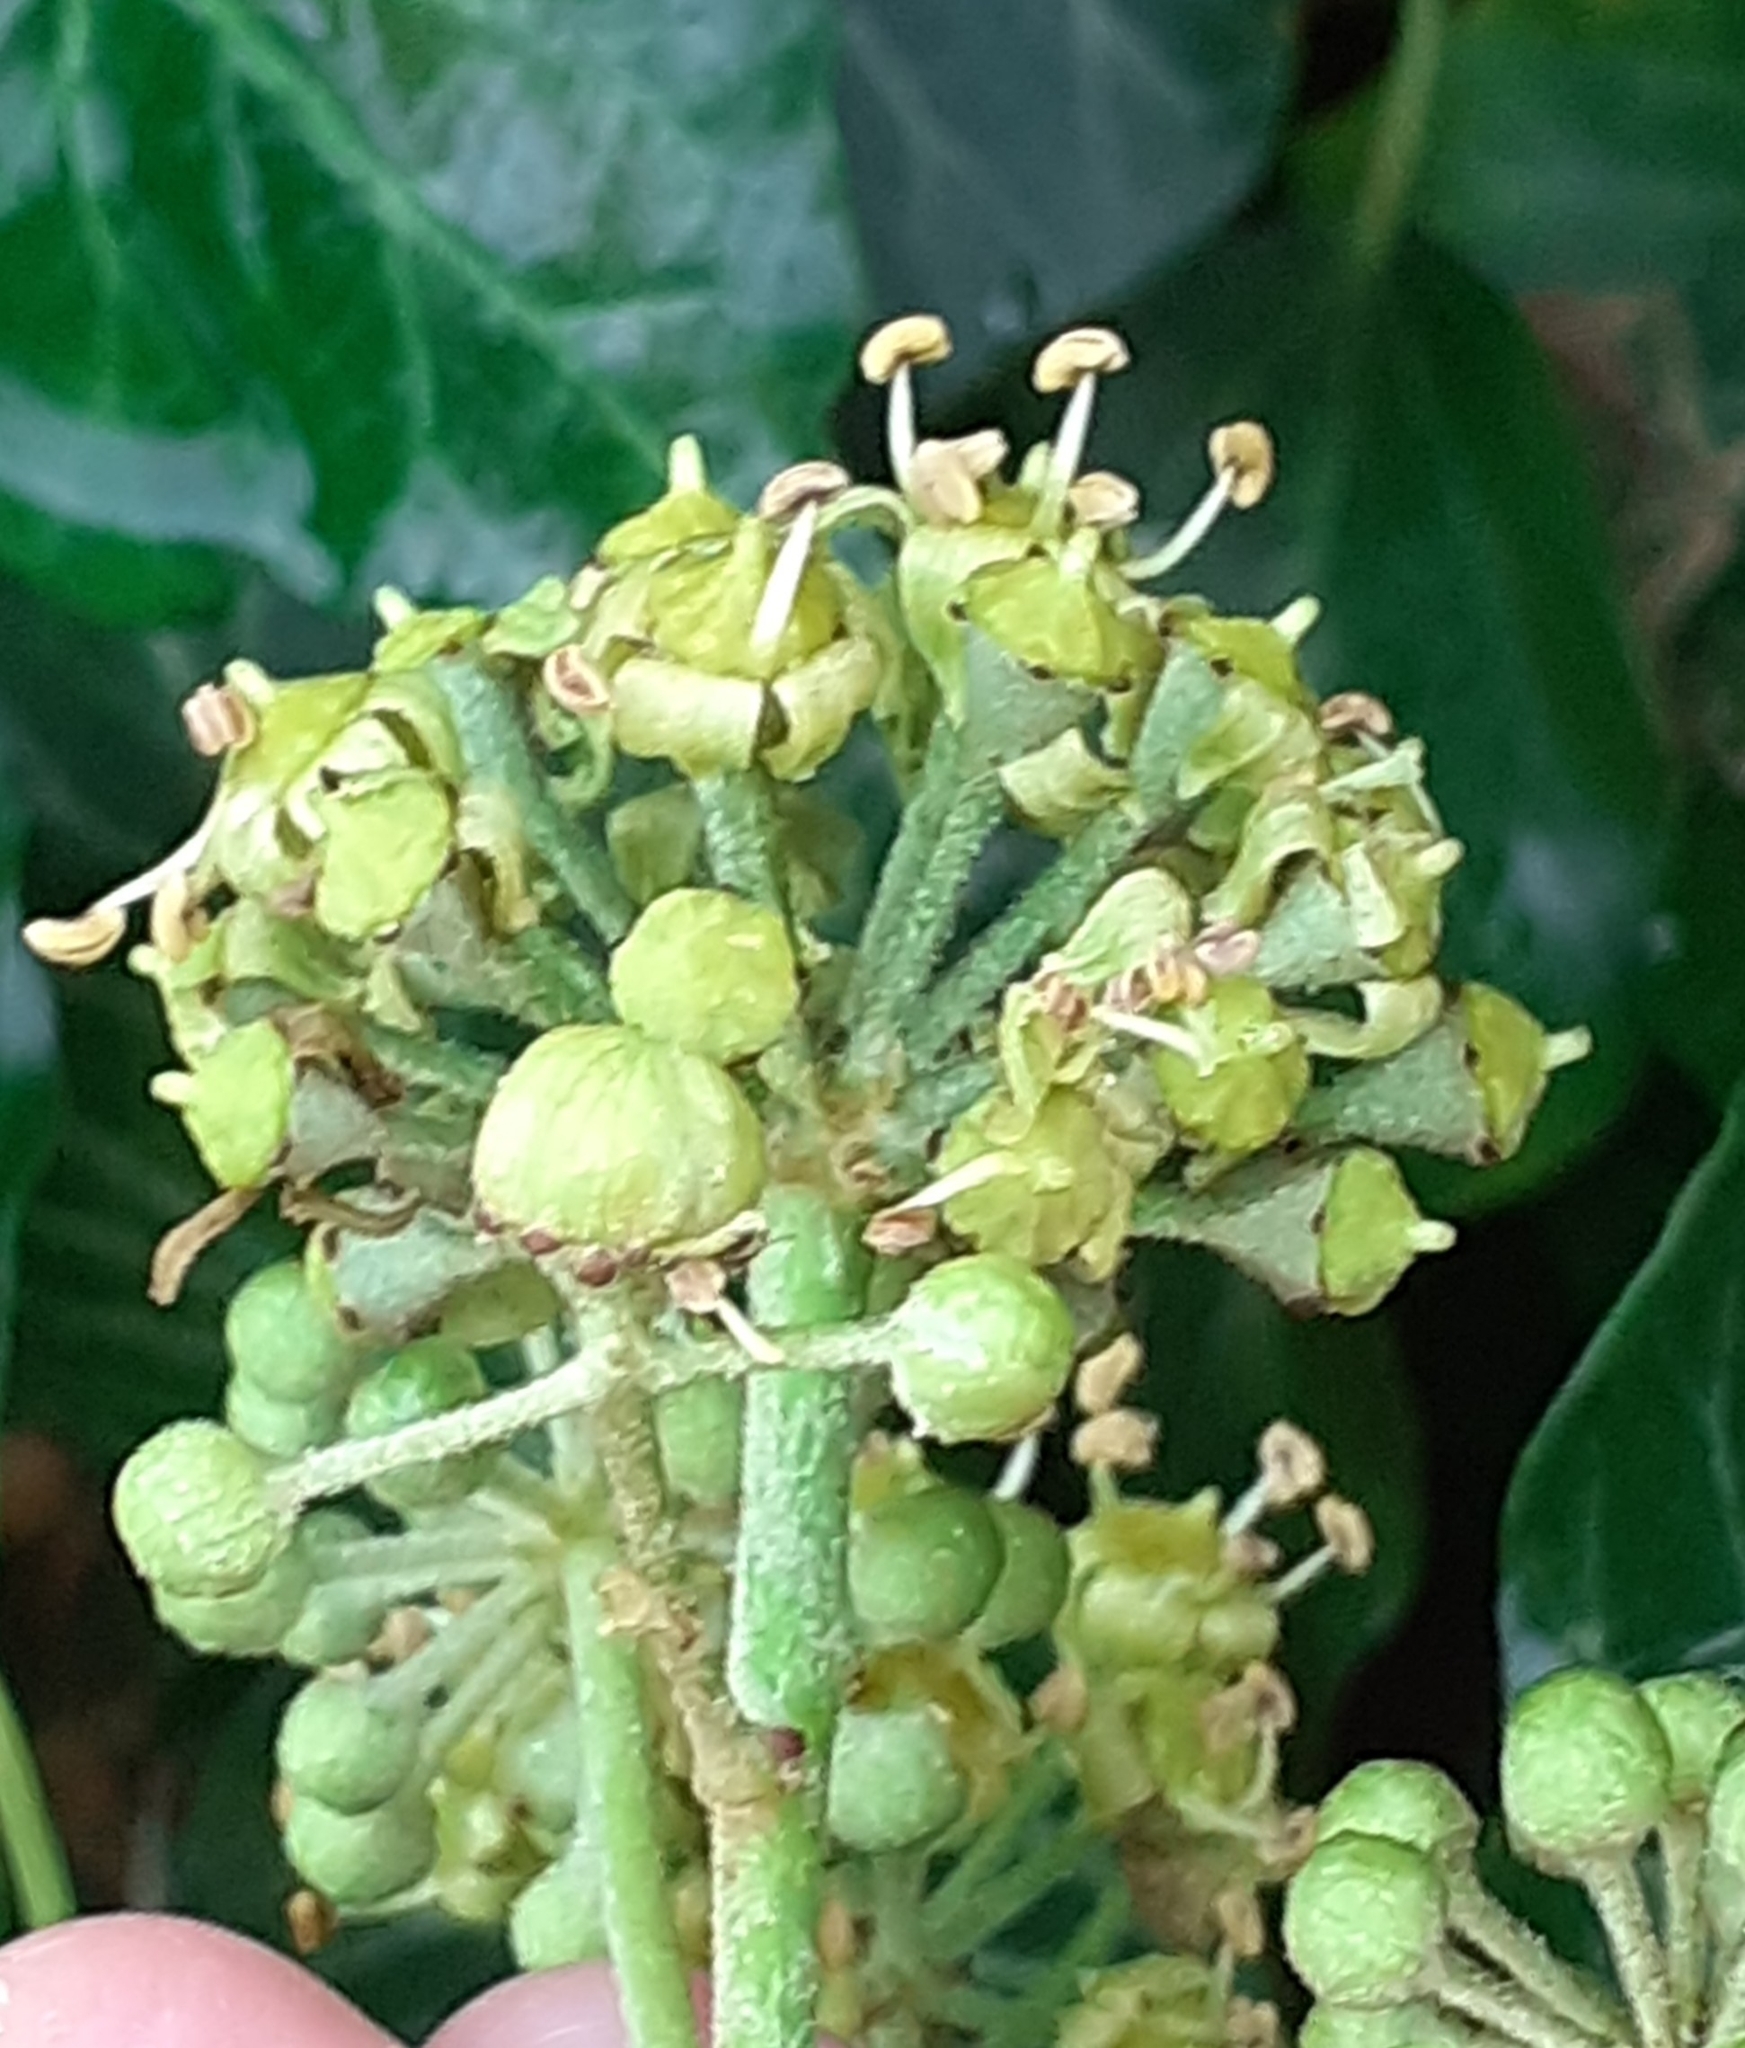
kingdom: Animalia
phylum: Arthropoda
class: Insecta
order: Diptera
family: Cecidomyiidae
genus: Dasineura
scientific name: Dasineura kiefferi
